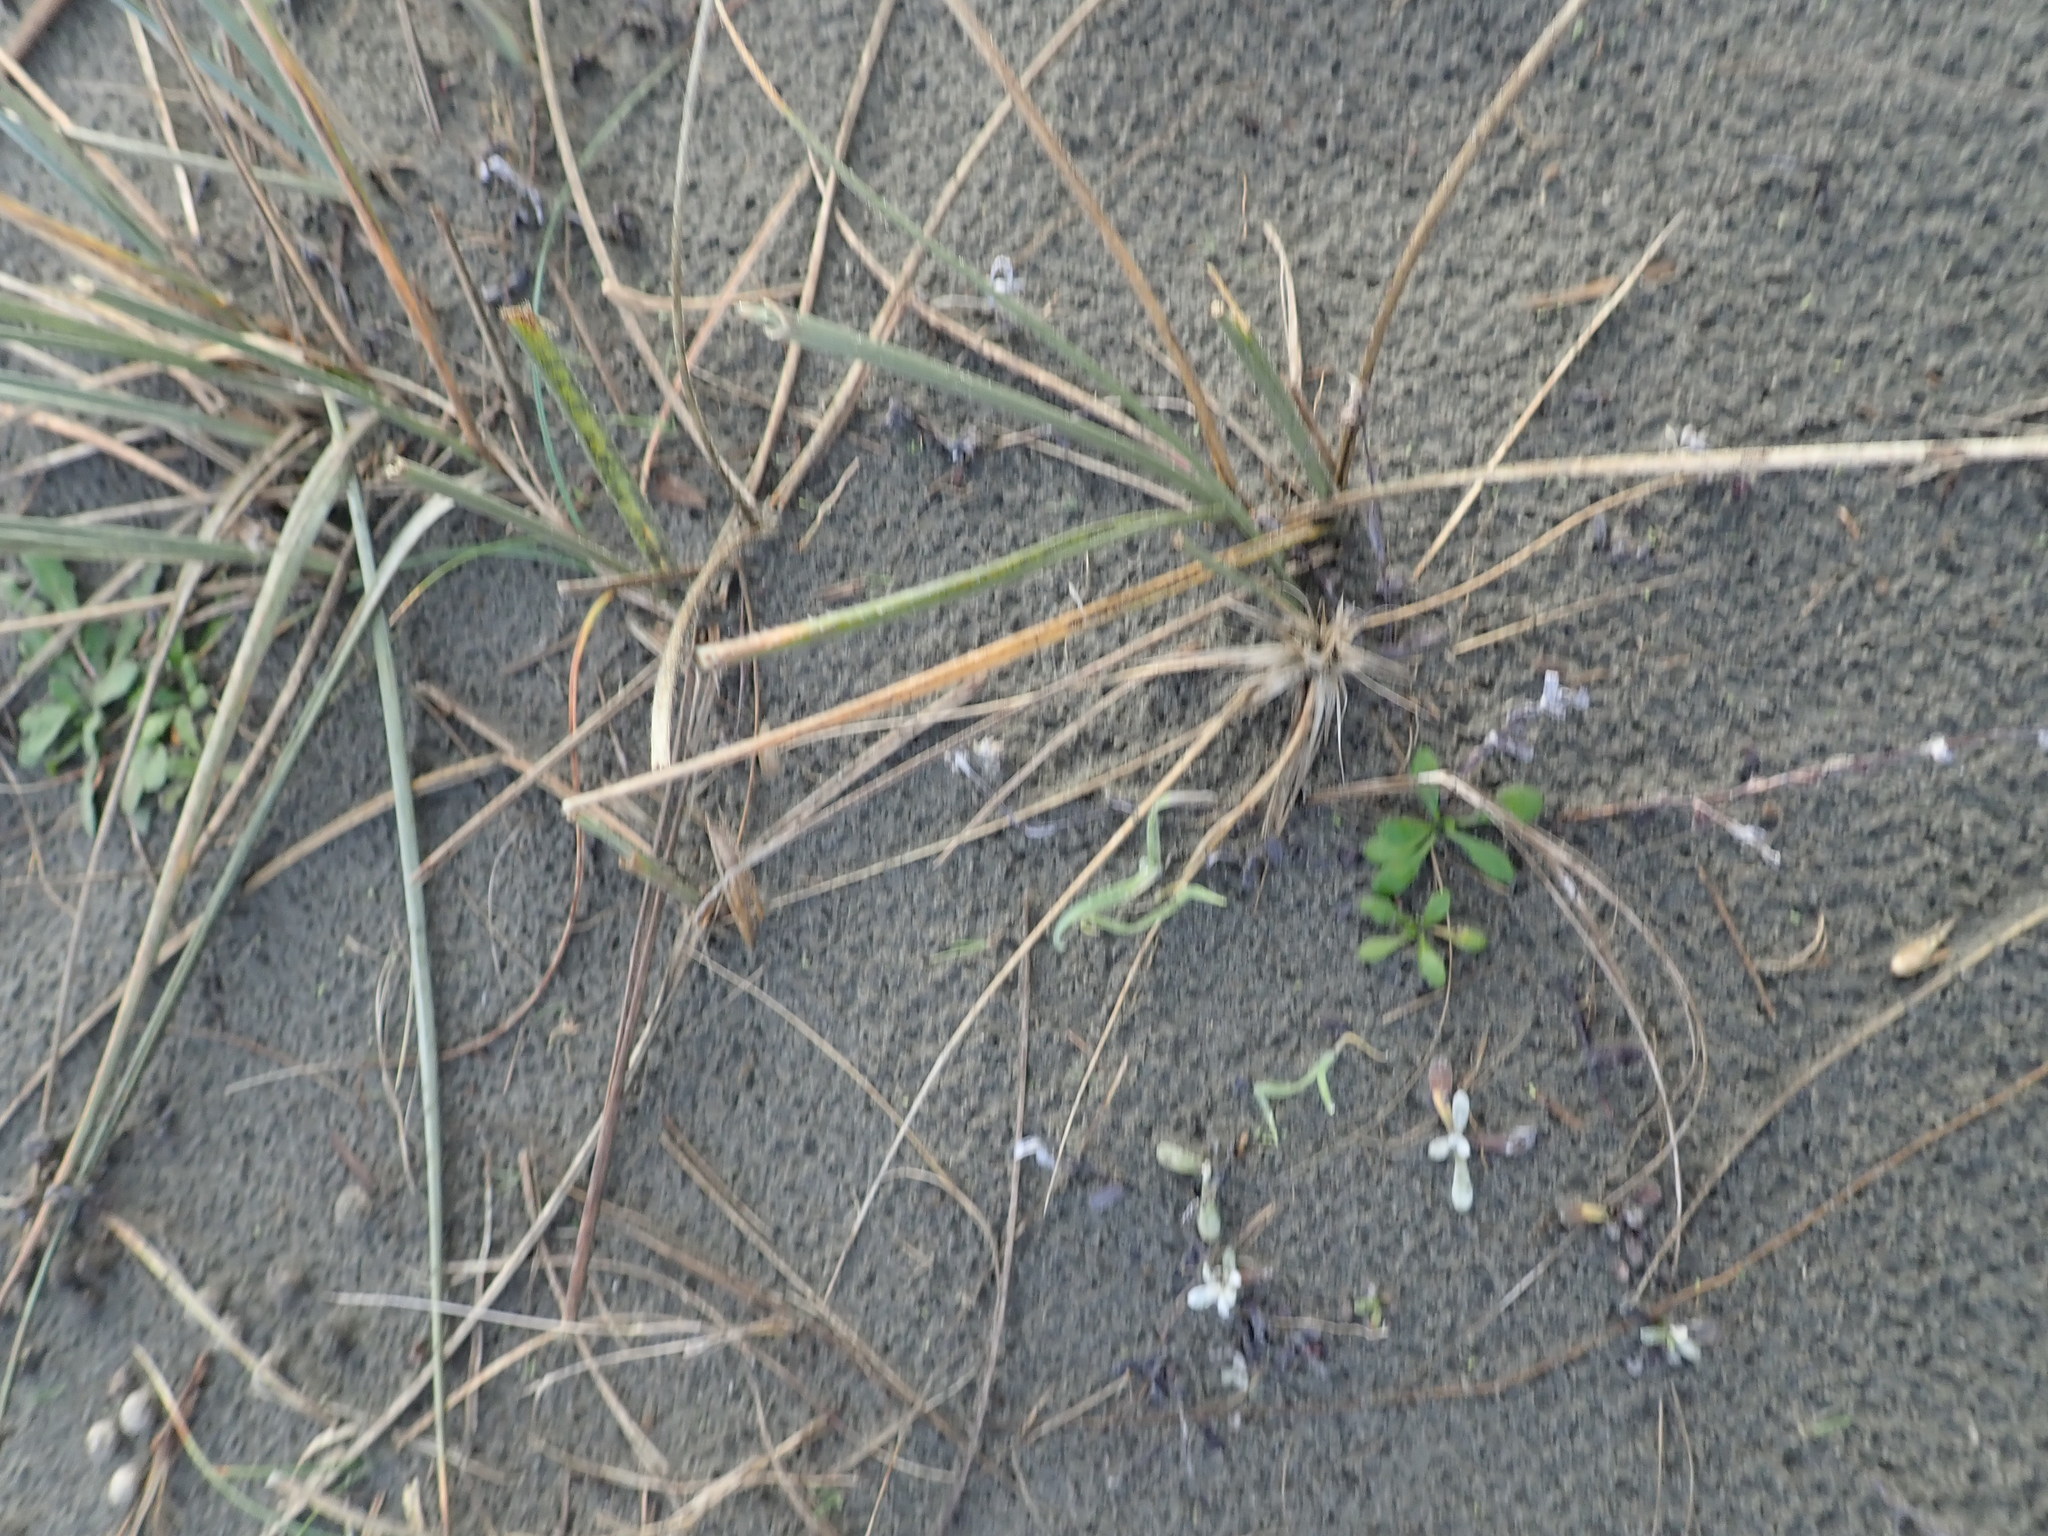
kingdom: Plantae
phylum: Tracheophyta
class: Liliopsida
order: Poales
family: Poaceae
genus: Spinifex
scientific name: Spinifex sericeus
